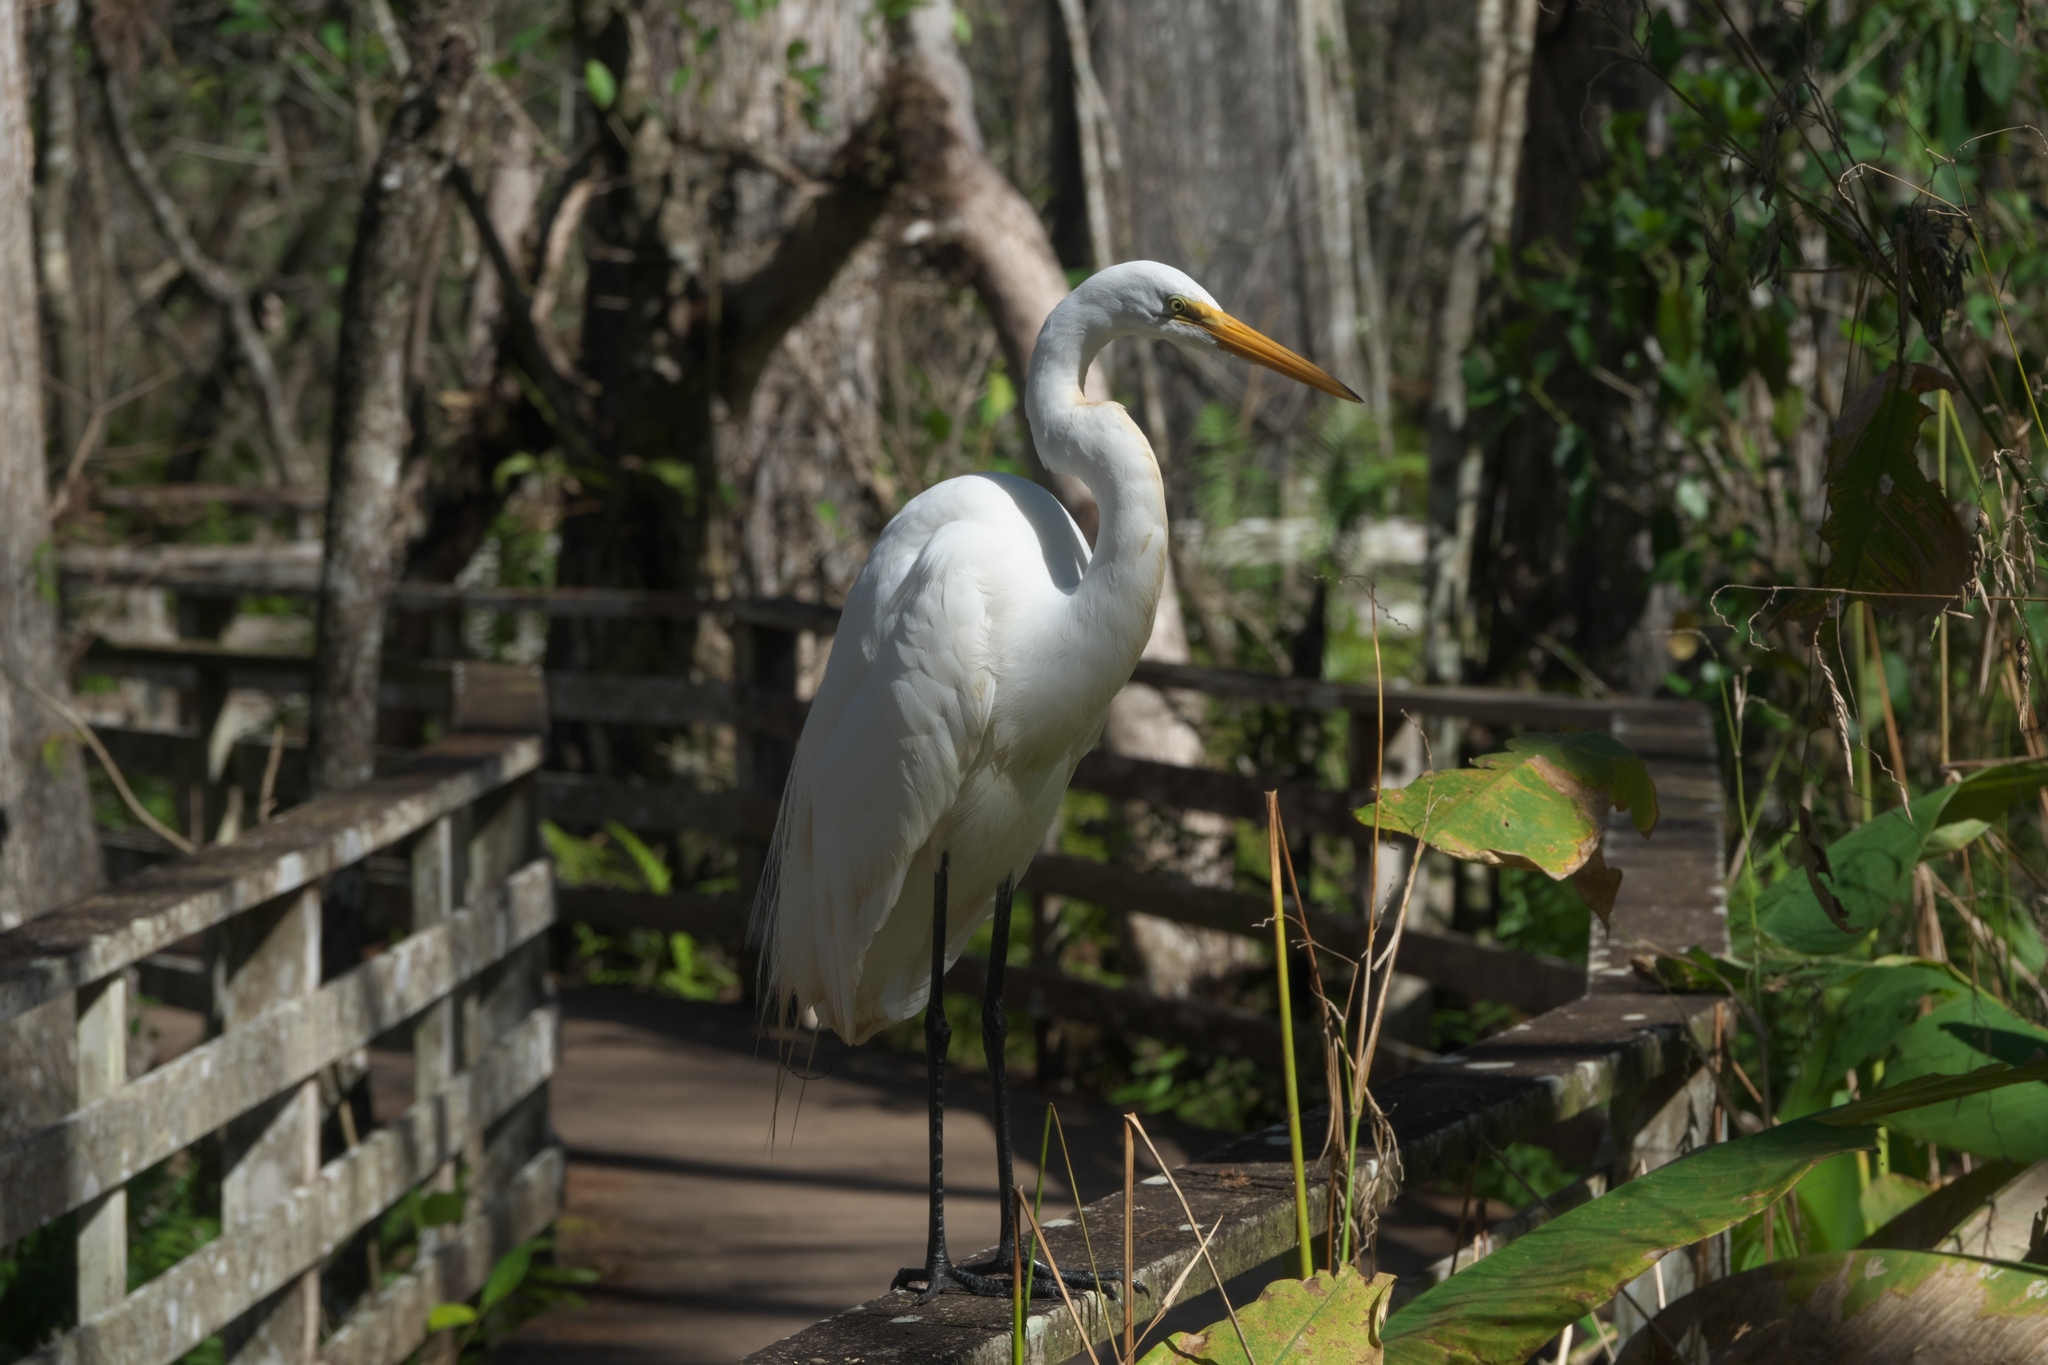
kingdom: Animalia
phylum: Chordata
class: Aves
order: Pelecaniformes
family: Ardeidae
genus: Ardea
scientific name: Ardea alba
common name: Great egret
